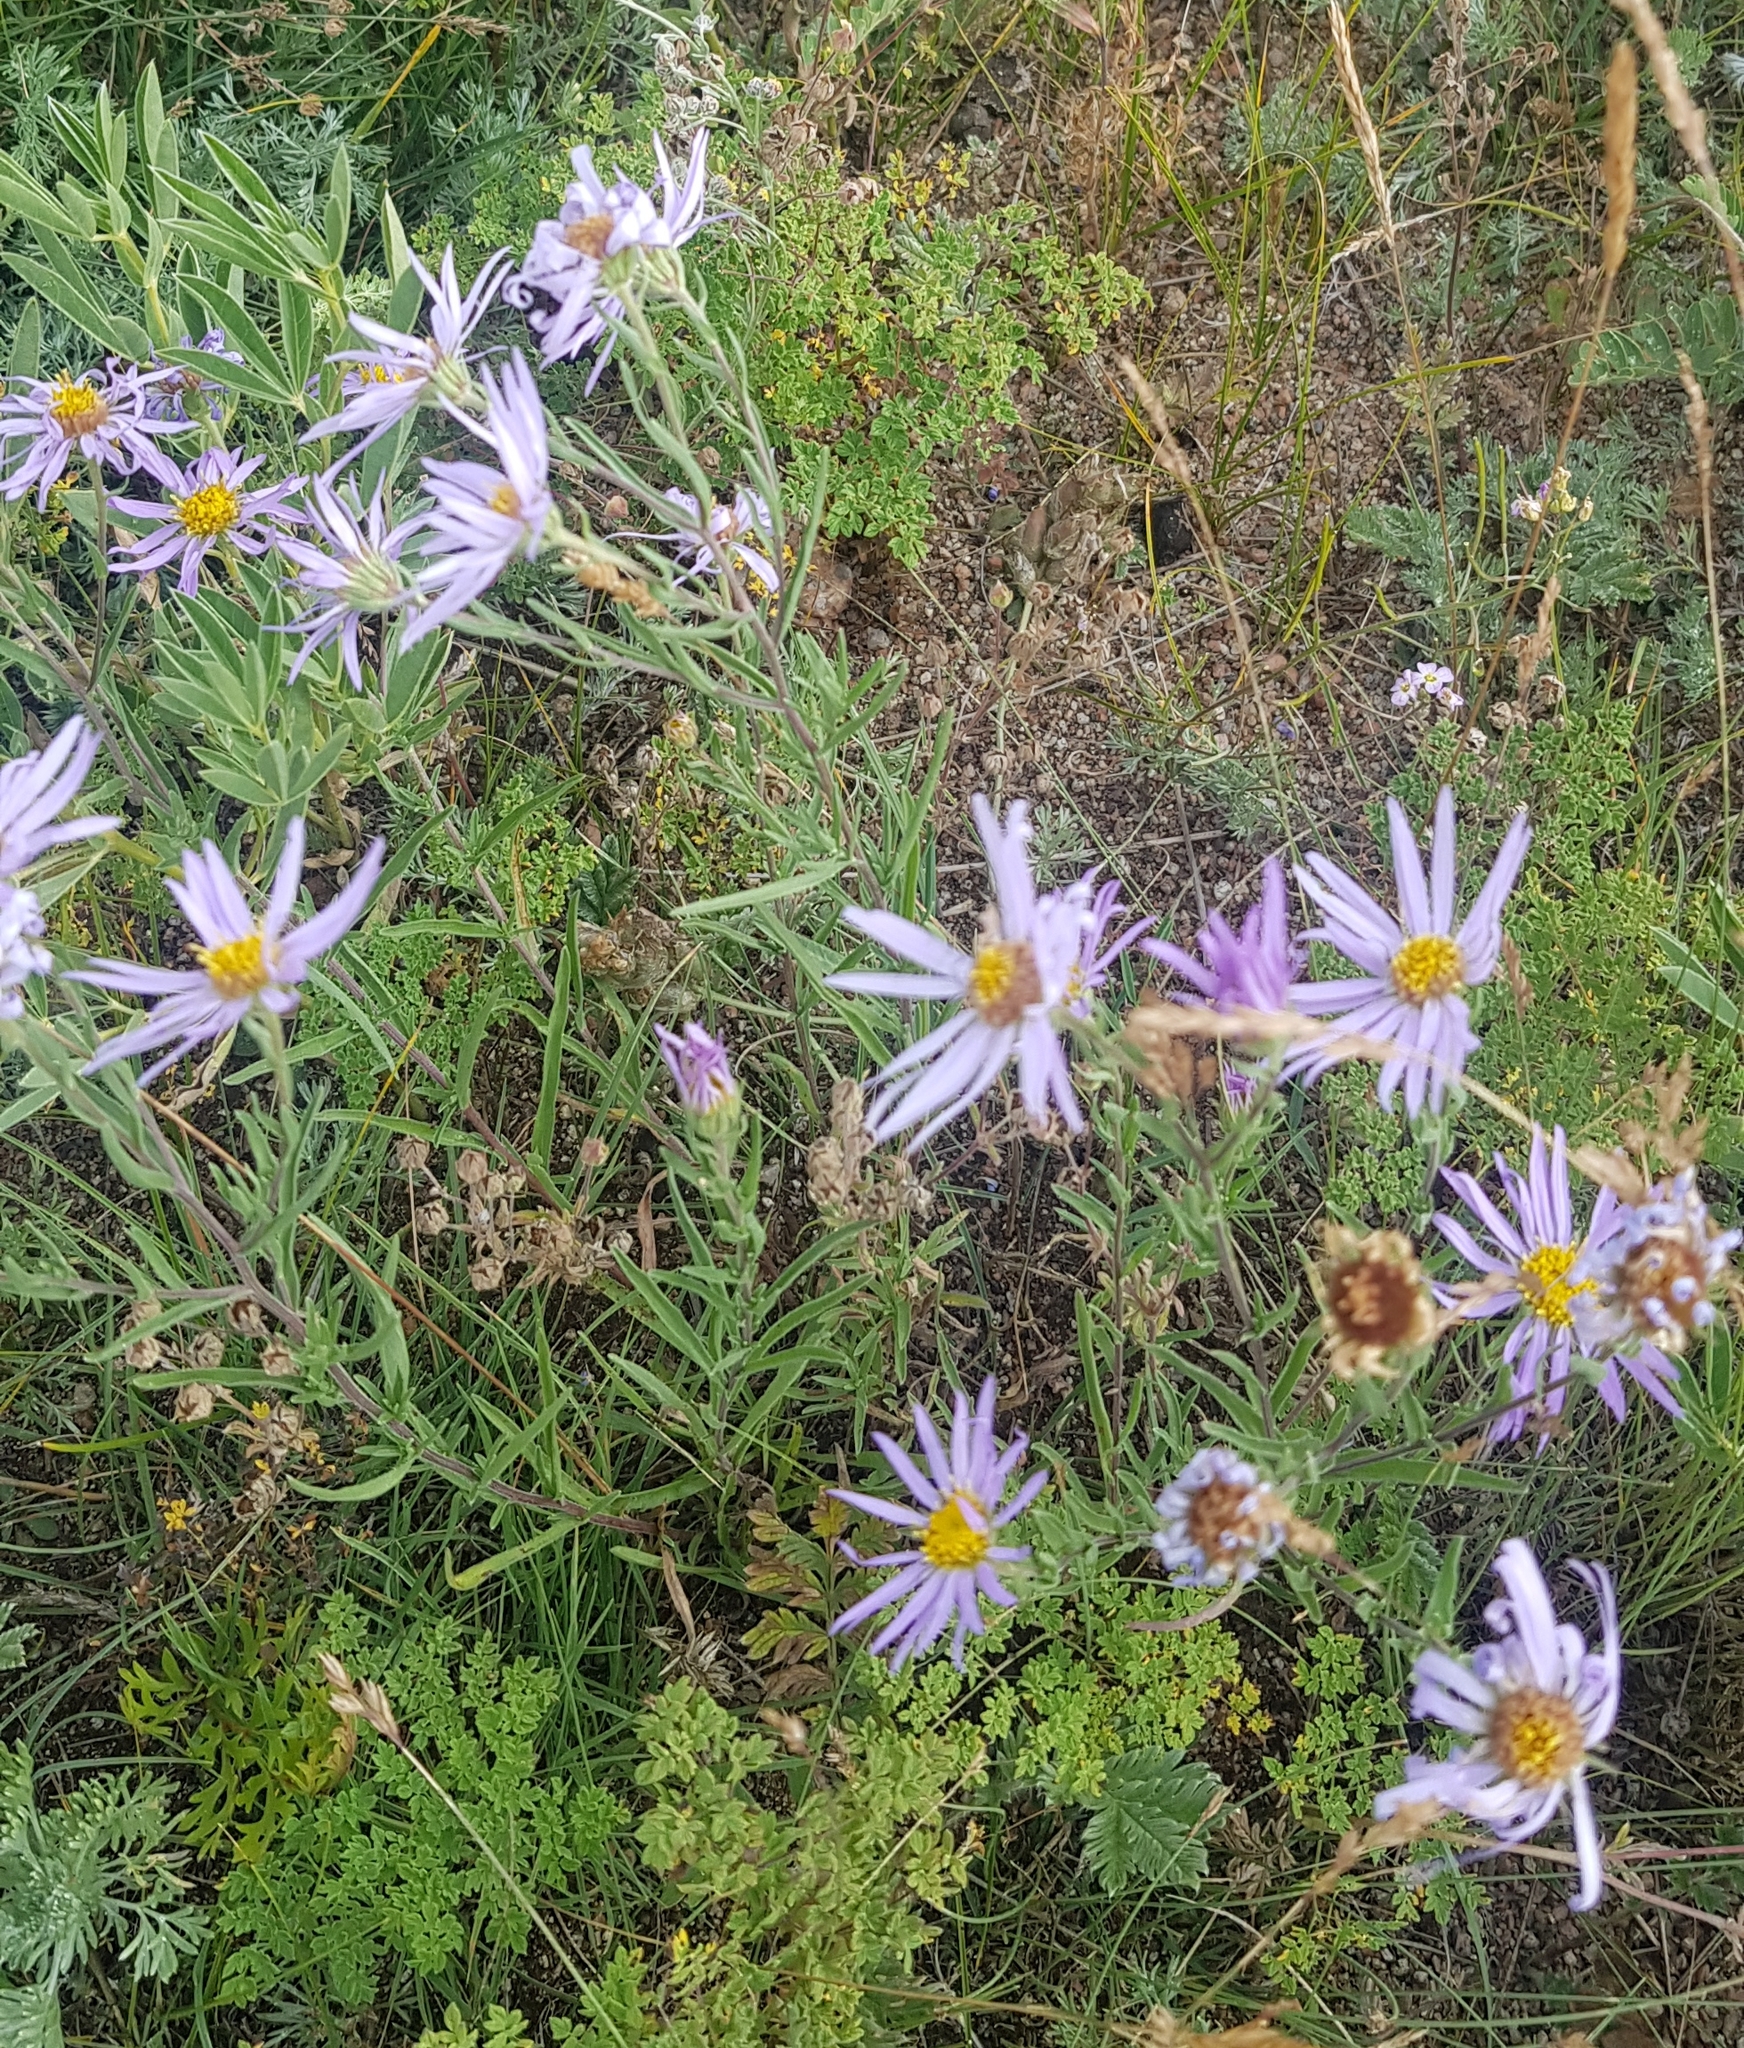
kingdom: Plantae
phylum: Tracheophyta
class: Magnoliopsida
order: Asterales
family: Asteraceae
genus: Aster
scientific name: Aster alpinus
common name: Alpine aster
